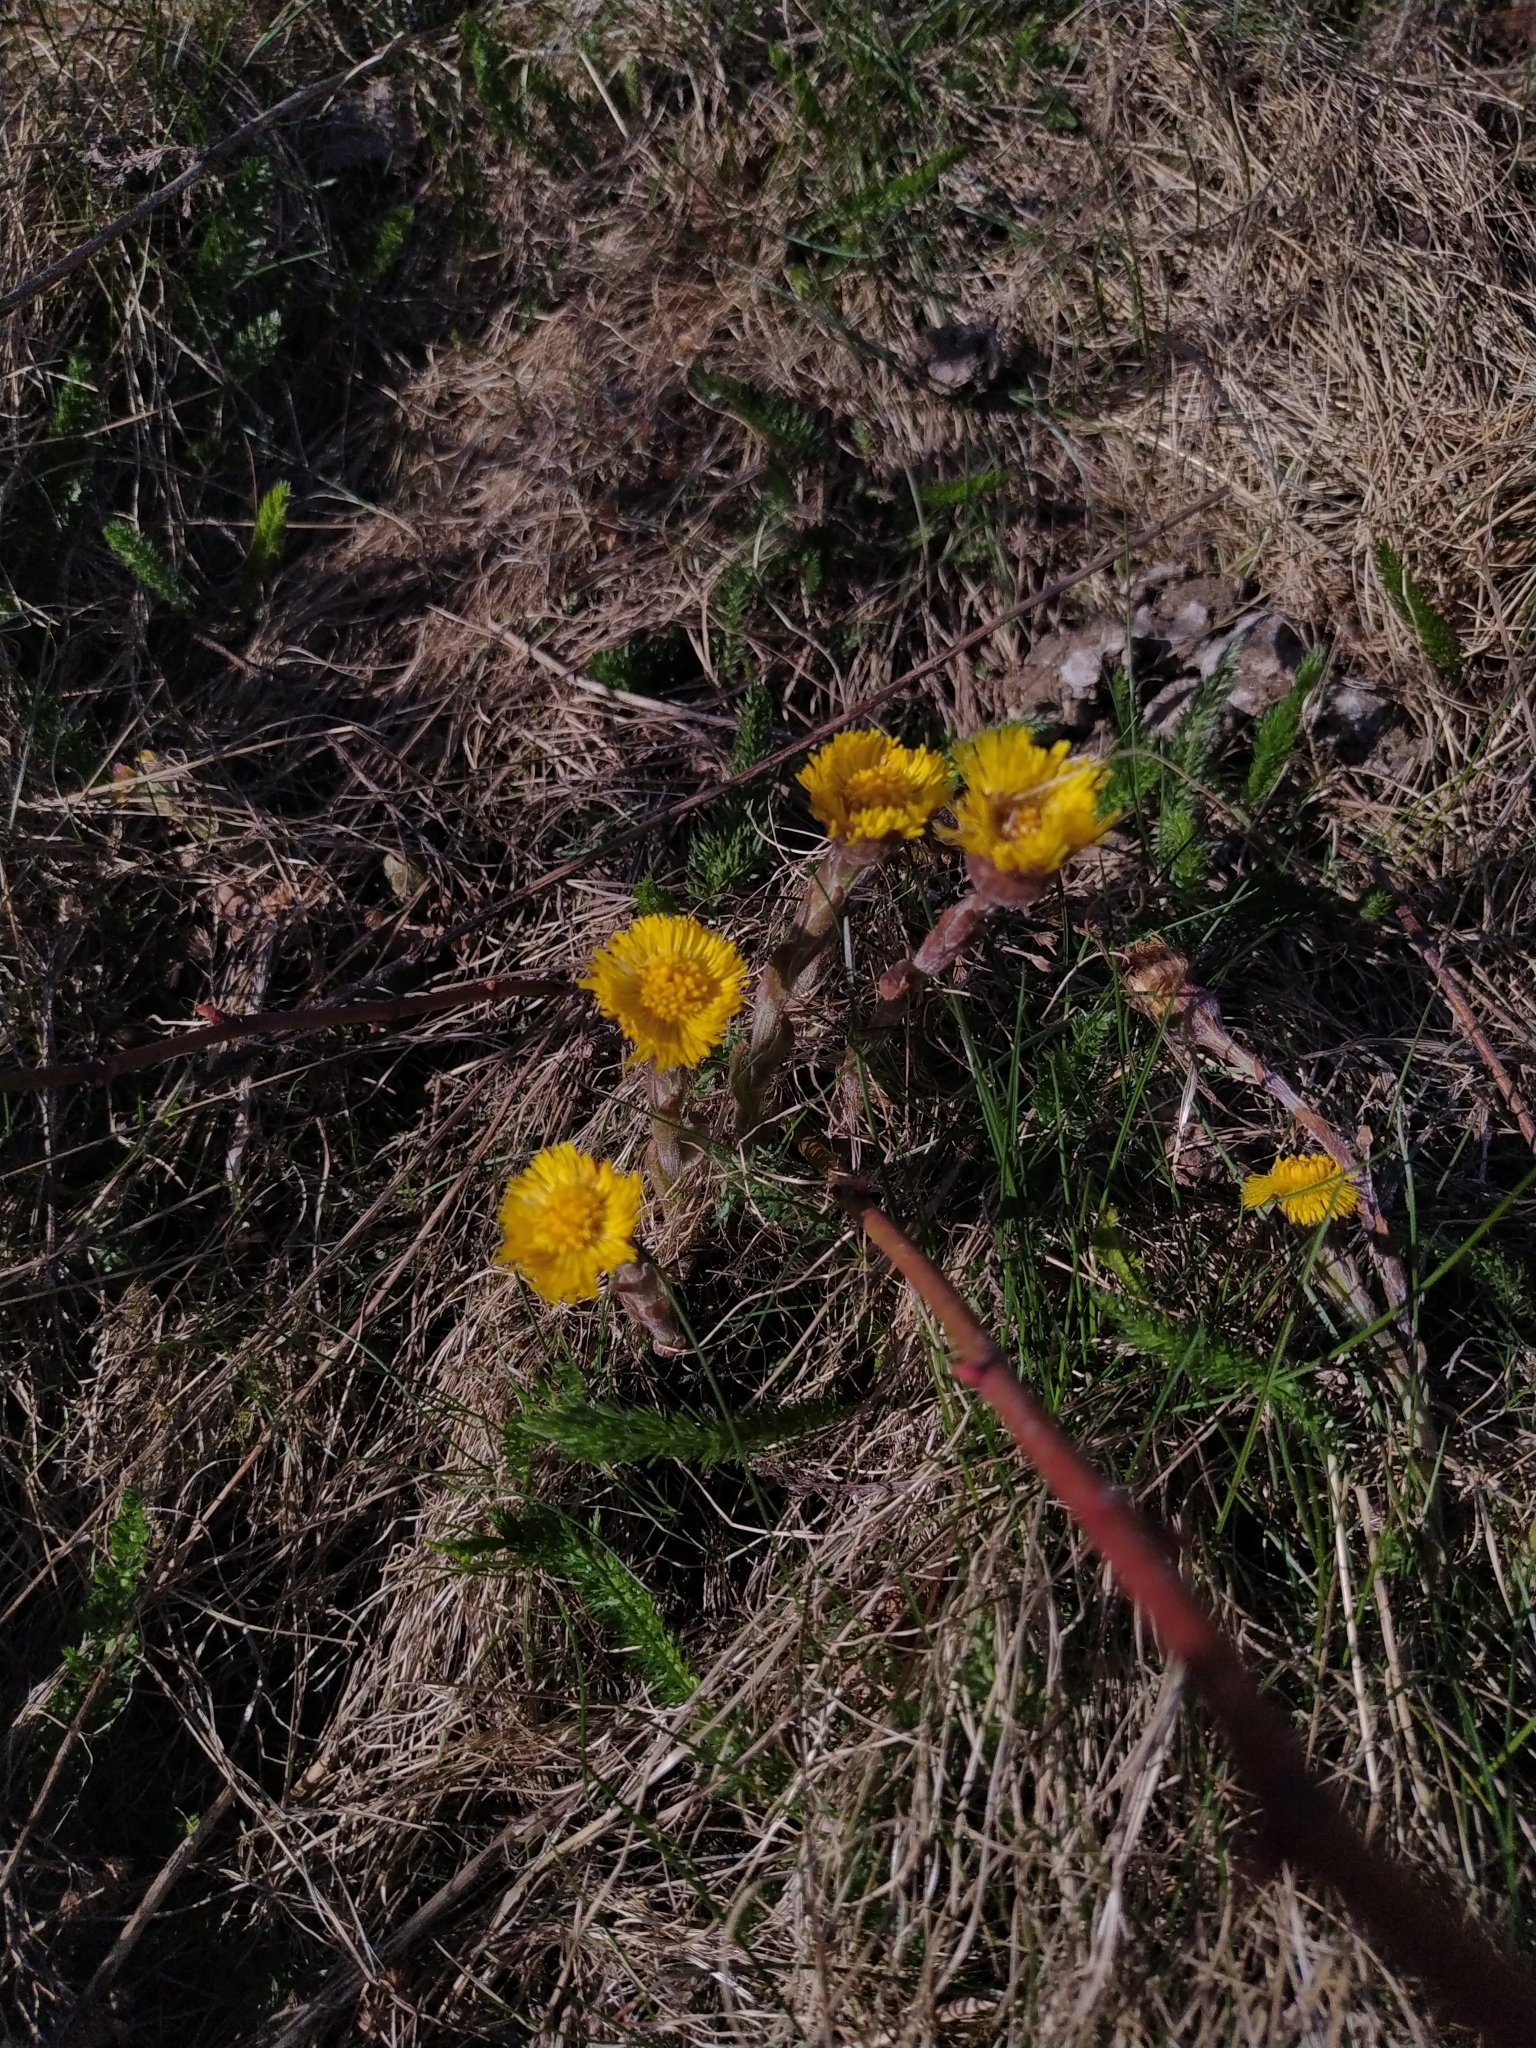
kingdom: Plantae
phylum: Tracheophyta
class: Magnoliopsida
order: Asterales
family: Asteraceae
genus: Tussilago
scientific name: Tussilago farfara
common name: Coltsfoot
